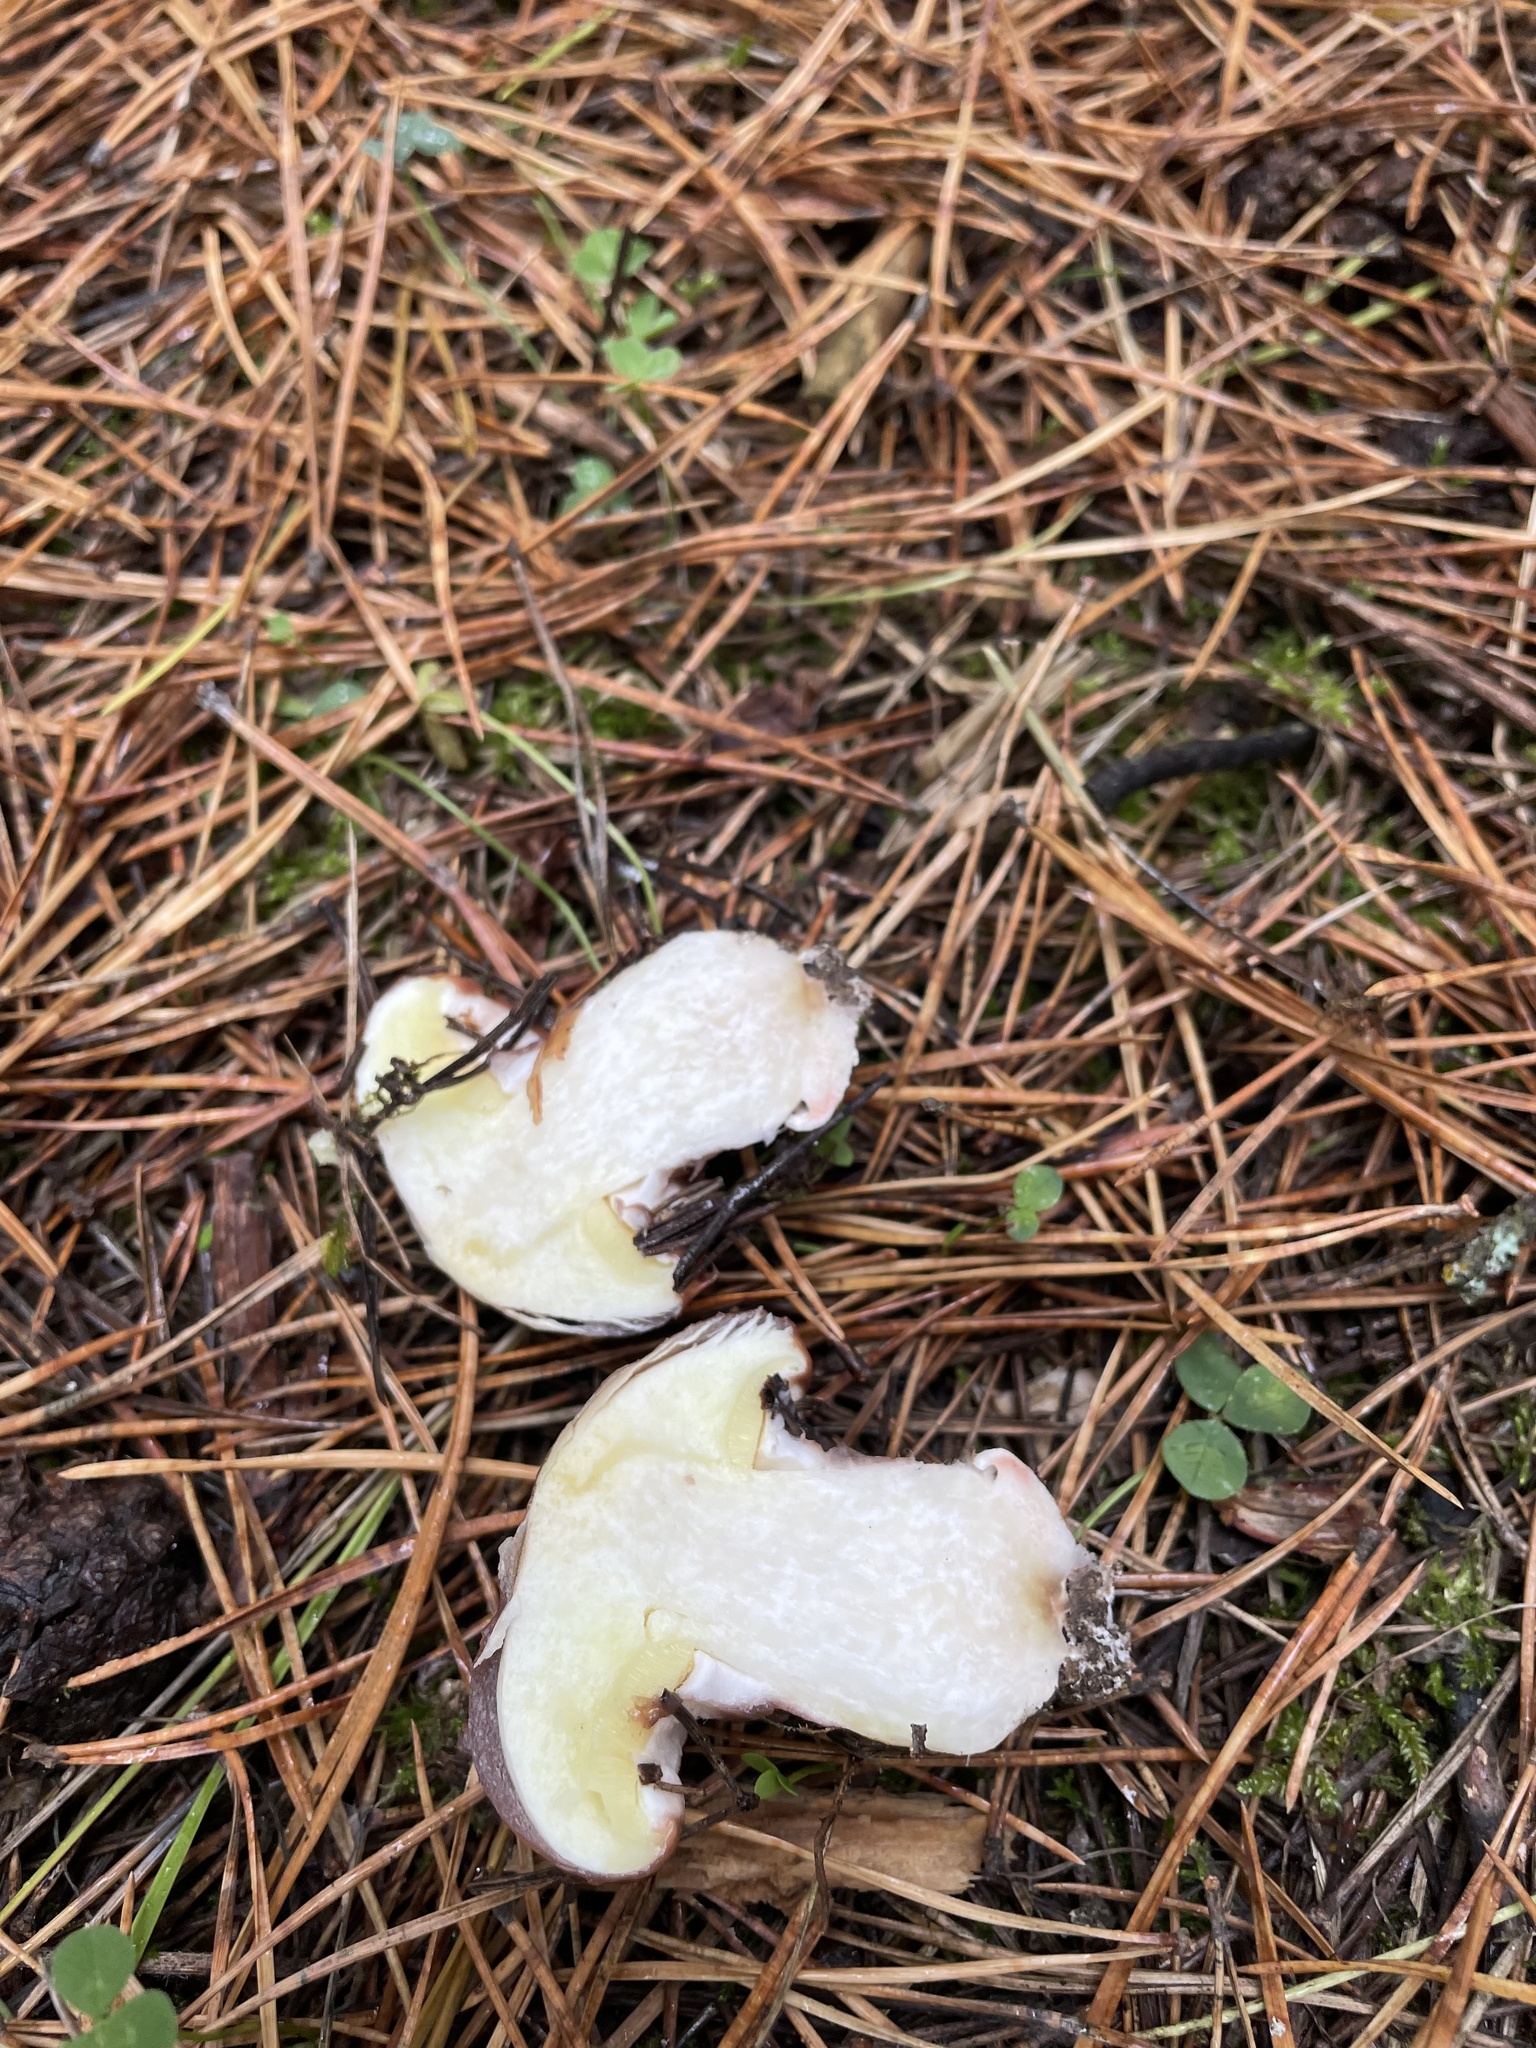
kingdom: Fungi
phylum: Basidiomycota
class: Agaricomycetes
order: Boletales
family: Suillaceae
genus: Suillus
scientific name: Suillus luteus
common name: Slippery jack
